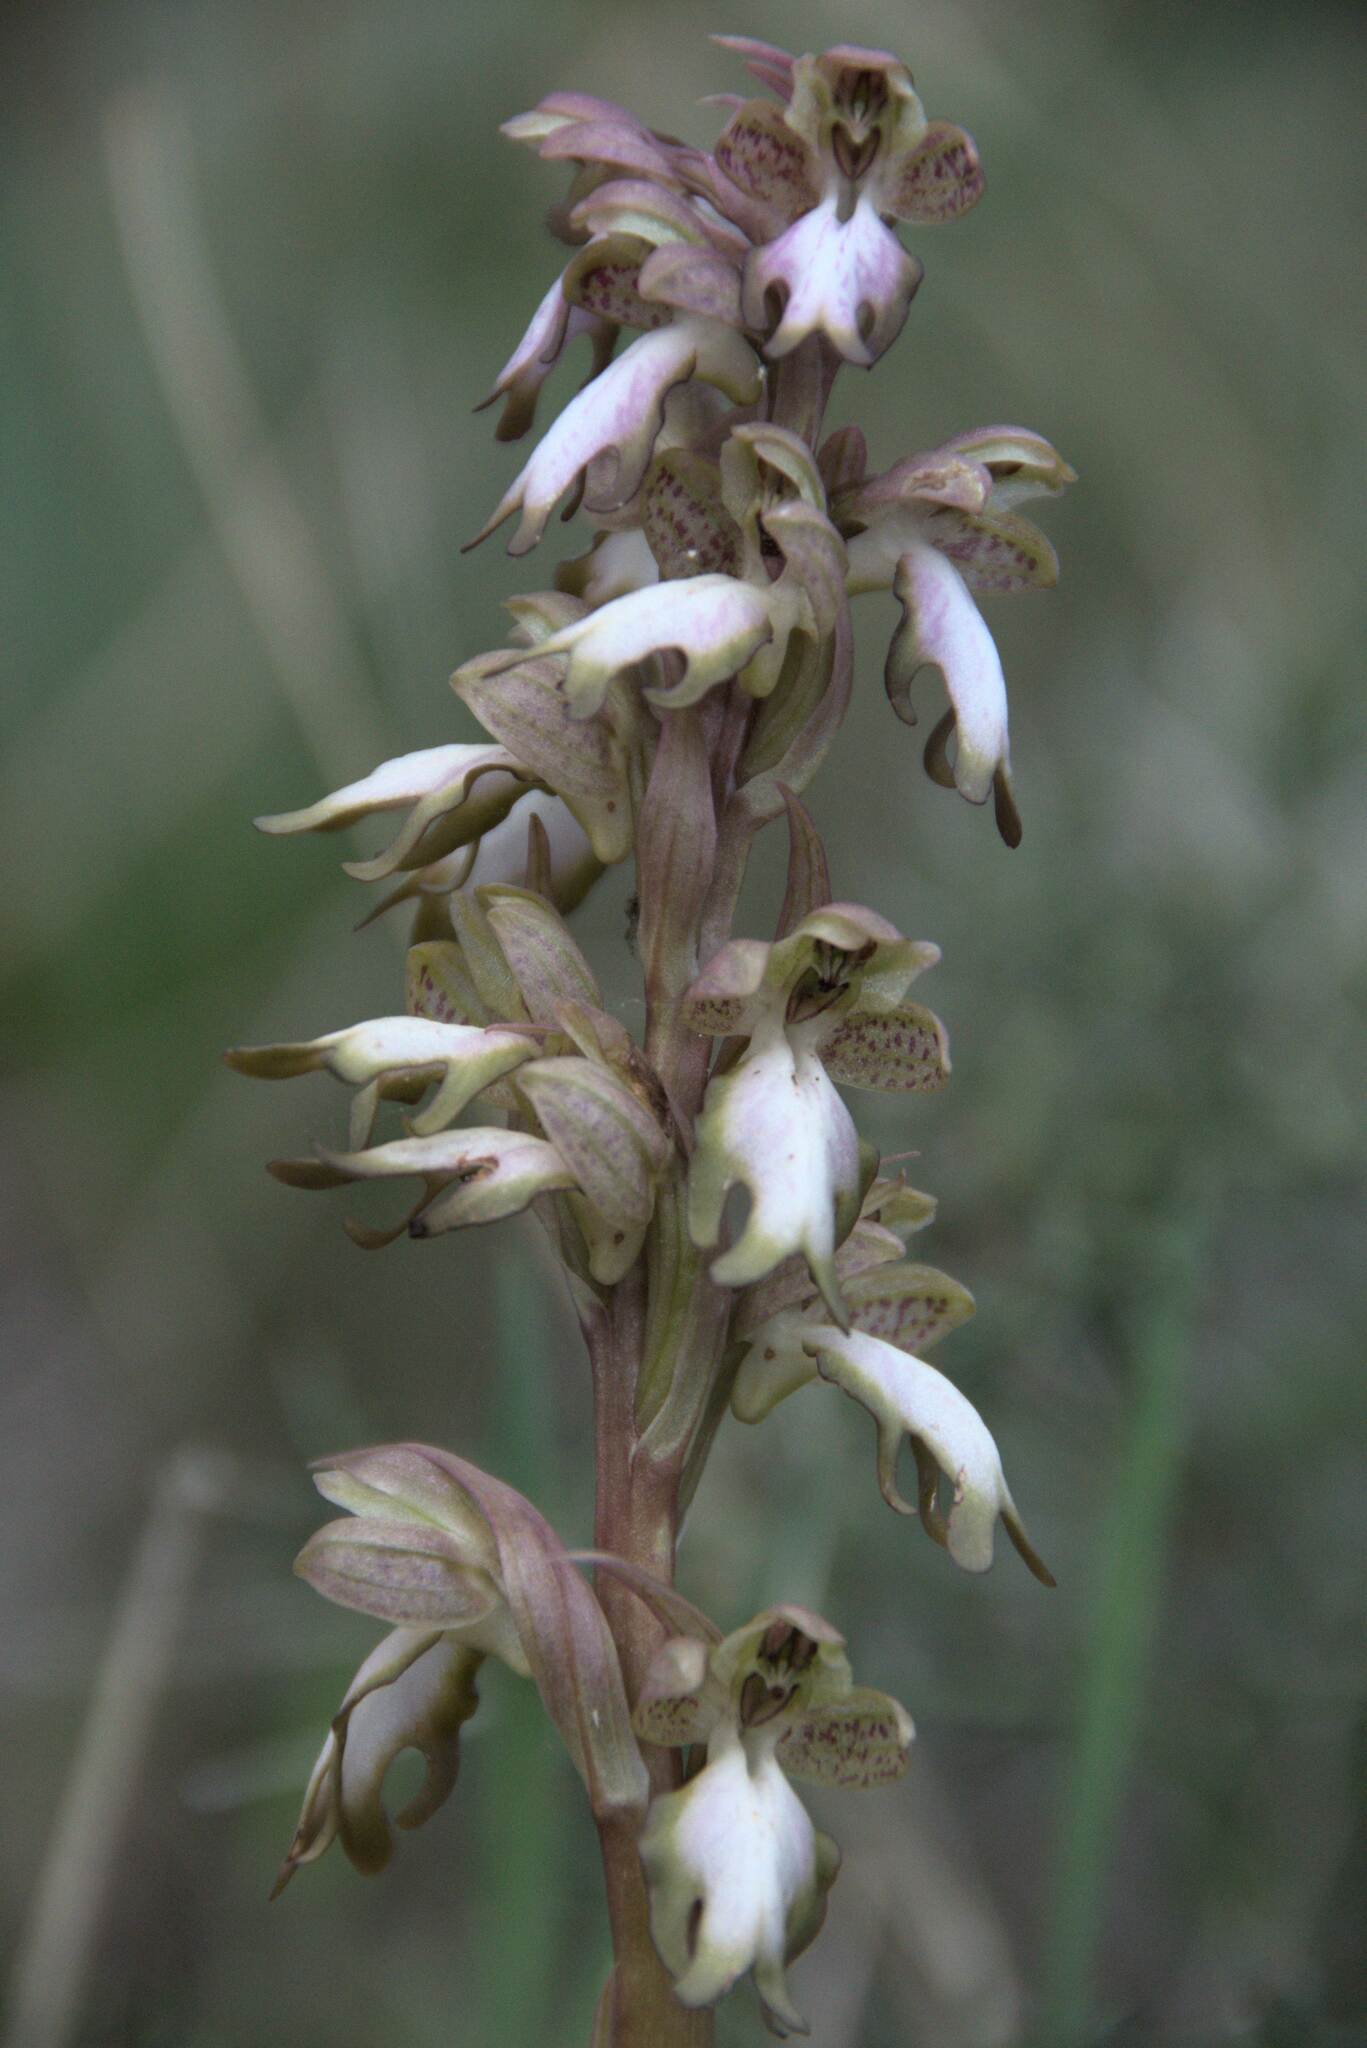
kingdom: Plantae
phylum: Tracheophyta
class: Liliopsida
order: Asparagales
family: Orchidaceae
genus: Himantoglossum
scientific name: Himantoglossum robertianum
